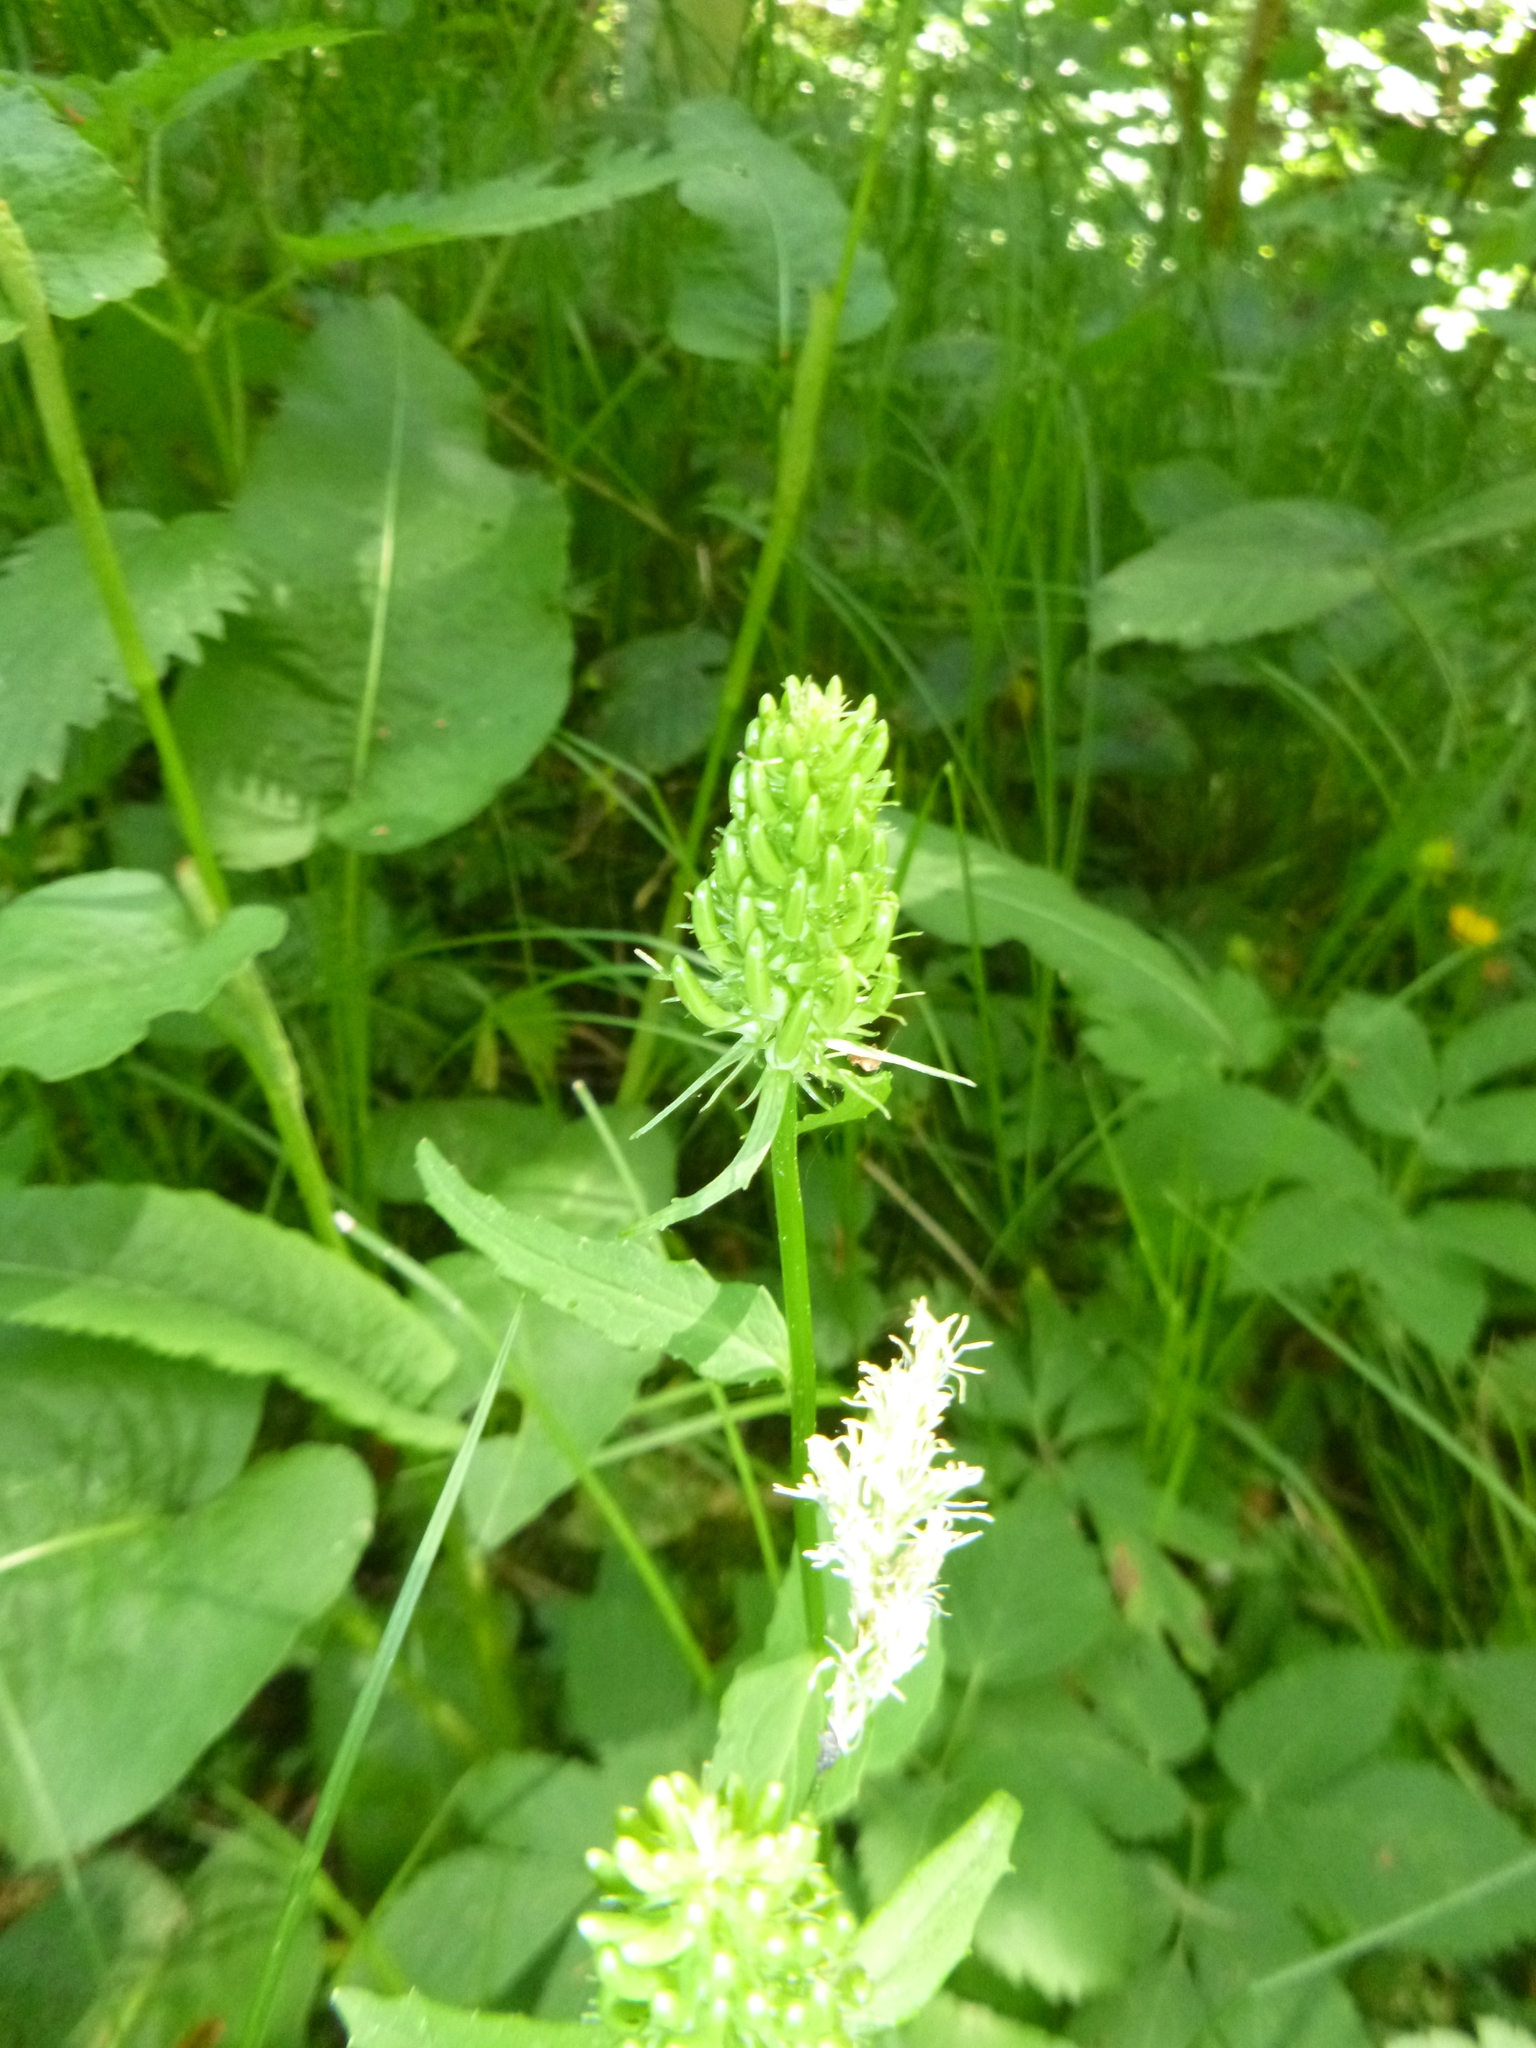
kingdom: Plantae
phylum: Tracheophyta
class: Magnoliopsida
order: Asterales
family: Campanulaceae
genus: Phyteuma
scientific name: Phyteuma spicatum
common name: Spiked rampion
